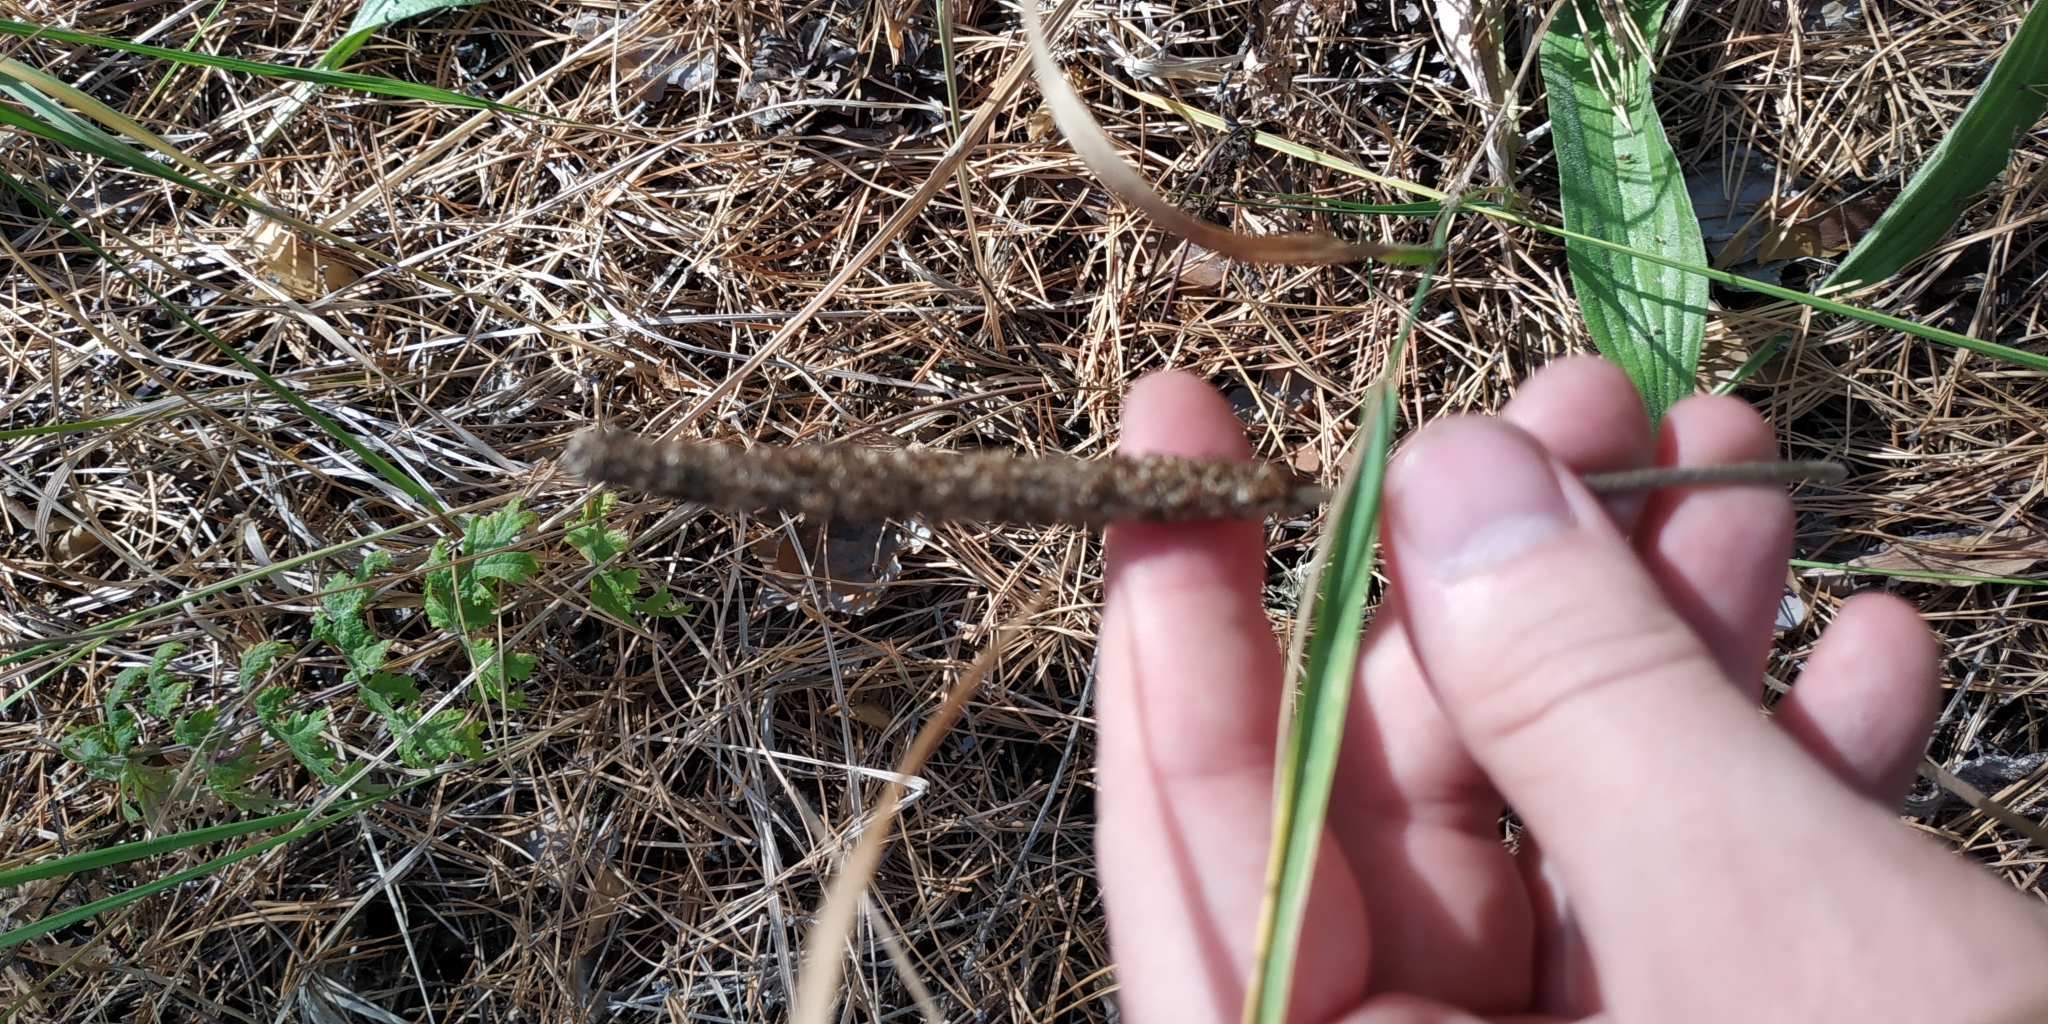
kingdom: Plantae
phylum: Tracheophyta
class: Magnoliopsida
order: Lamiales
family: Plantaginaceae
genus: Plantago
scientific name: Plantago urvillei
